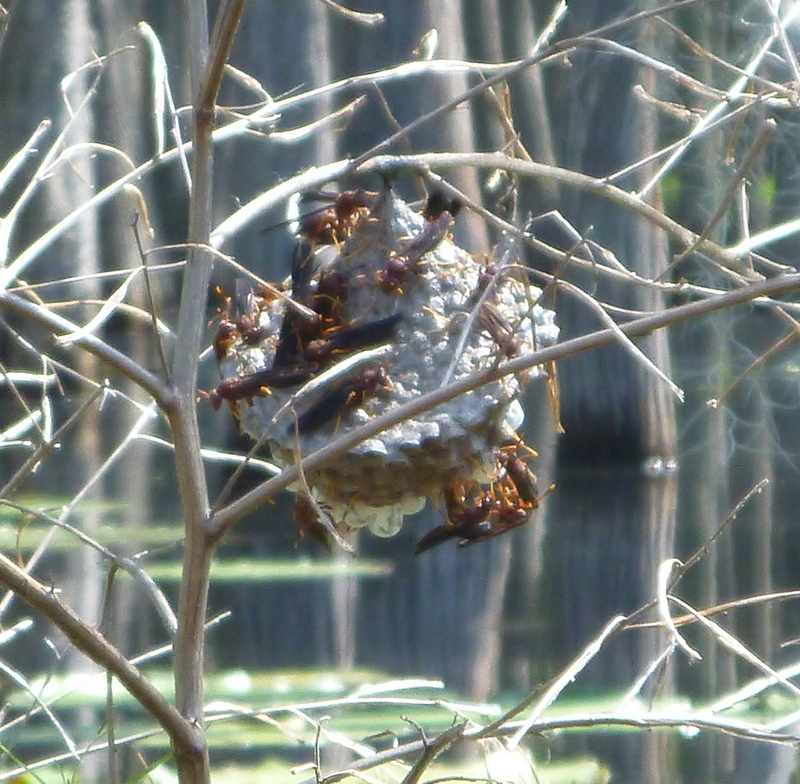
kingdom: Animalia
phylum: Arthropoda
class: Insecta
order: Hymenoptera
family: Eumenidae
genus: Polistes
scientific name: Polistes annularis
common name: Ringed paper wasp
